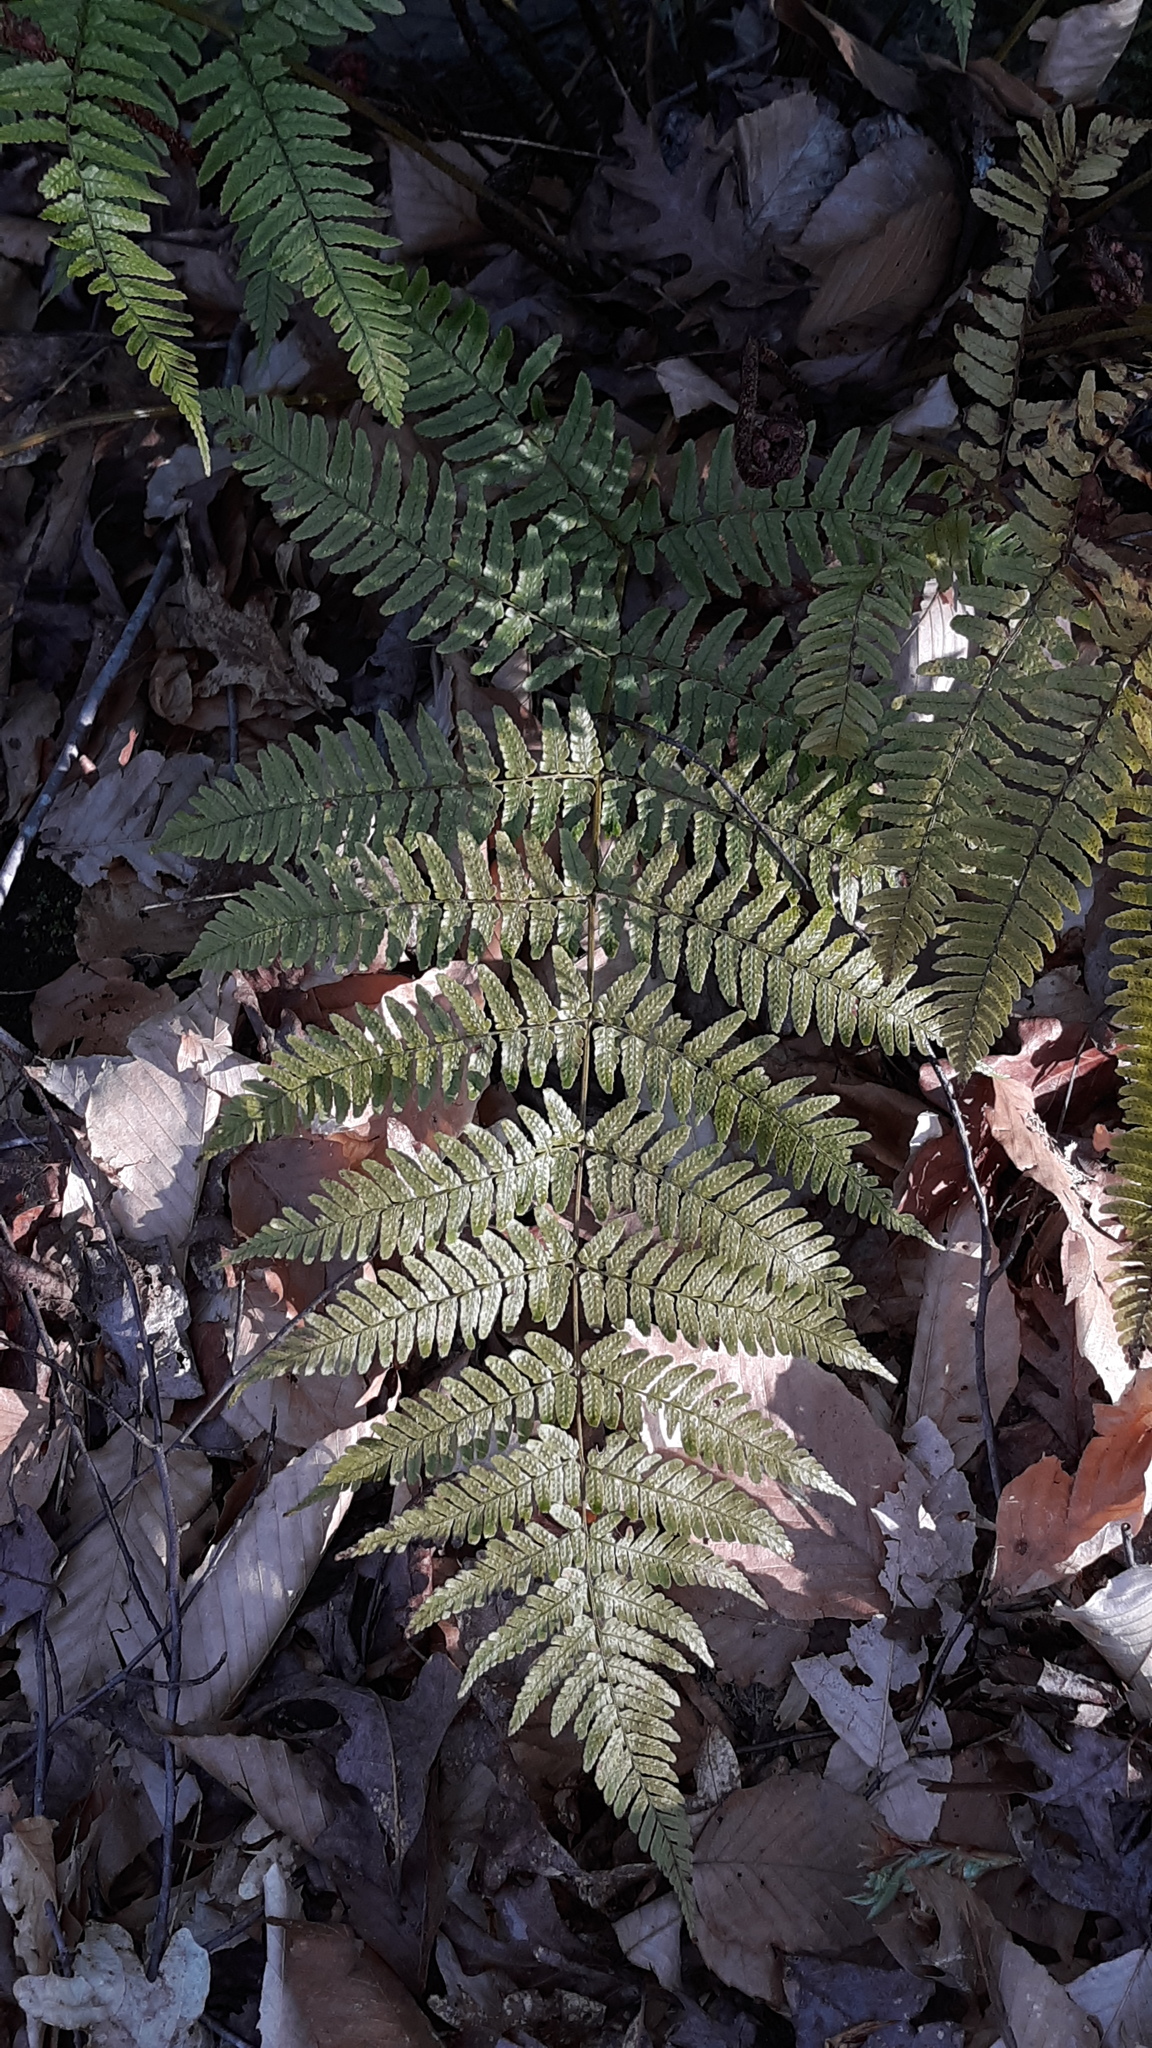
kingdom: Plantae
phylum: Tracheophyta
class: Polypodiopsida
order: Polypodiales
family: Dryopteridaceae
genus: Dryopteris
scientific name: Dryopteris erythrosora
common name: Autumn fern
